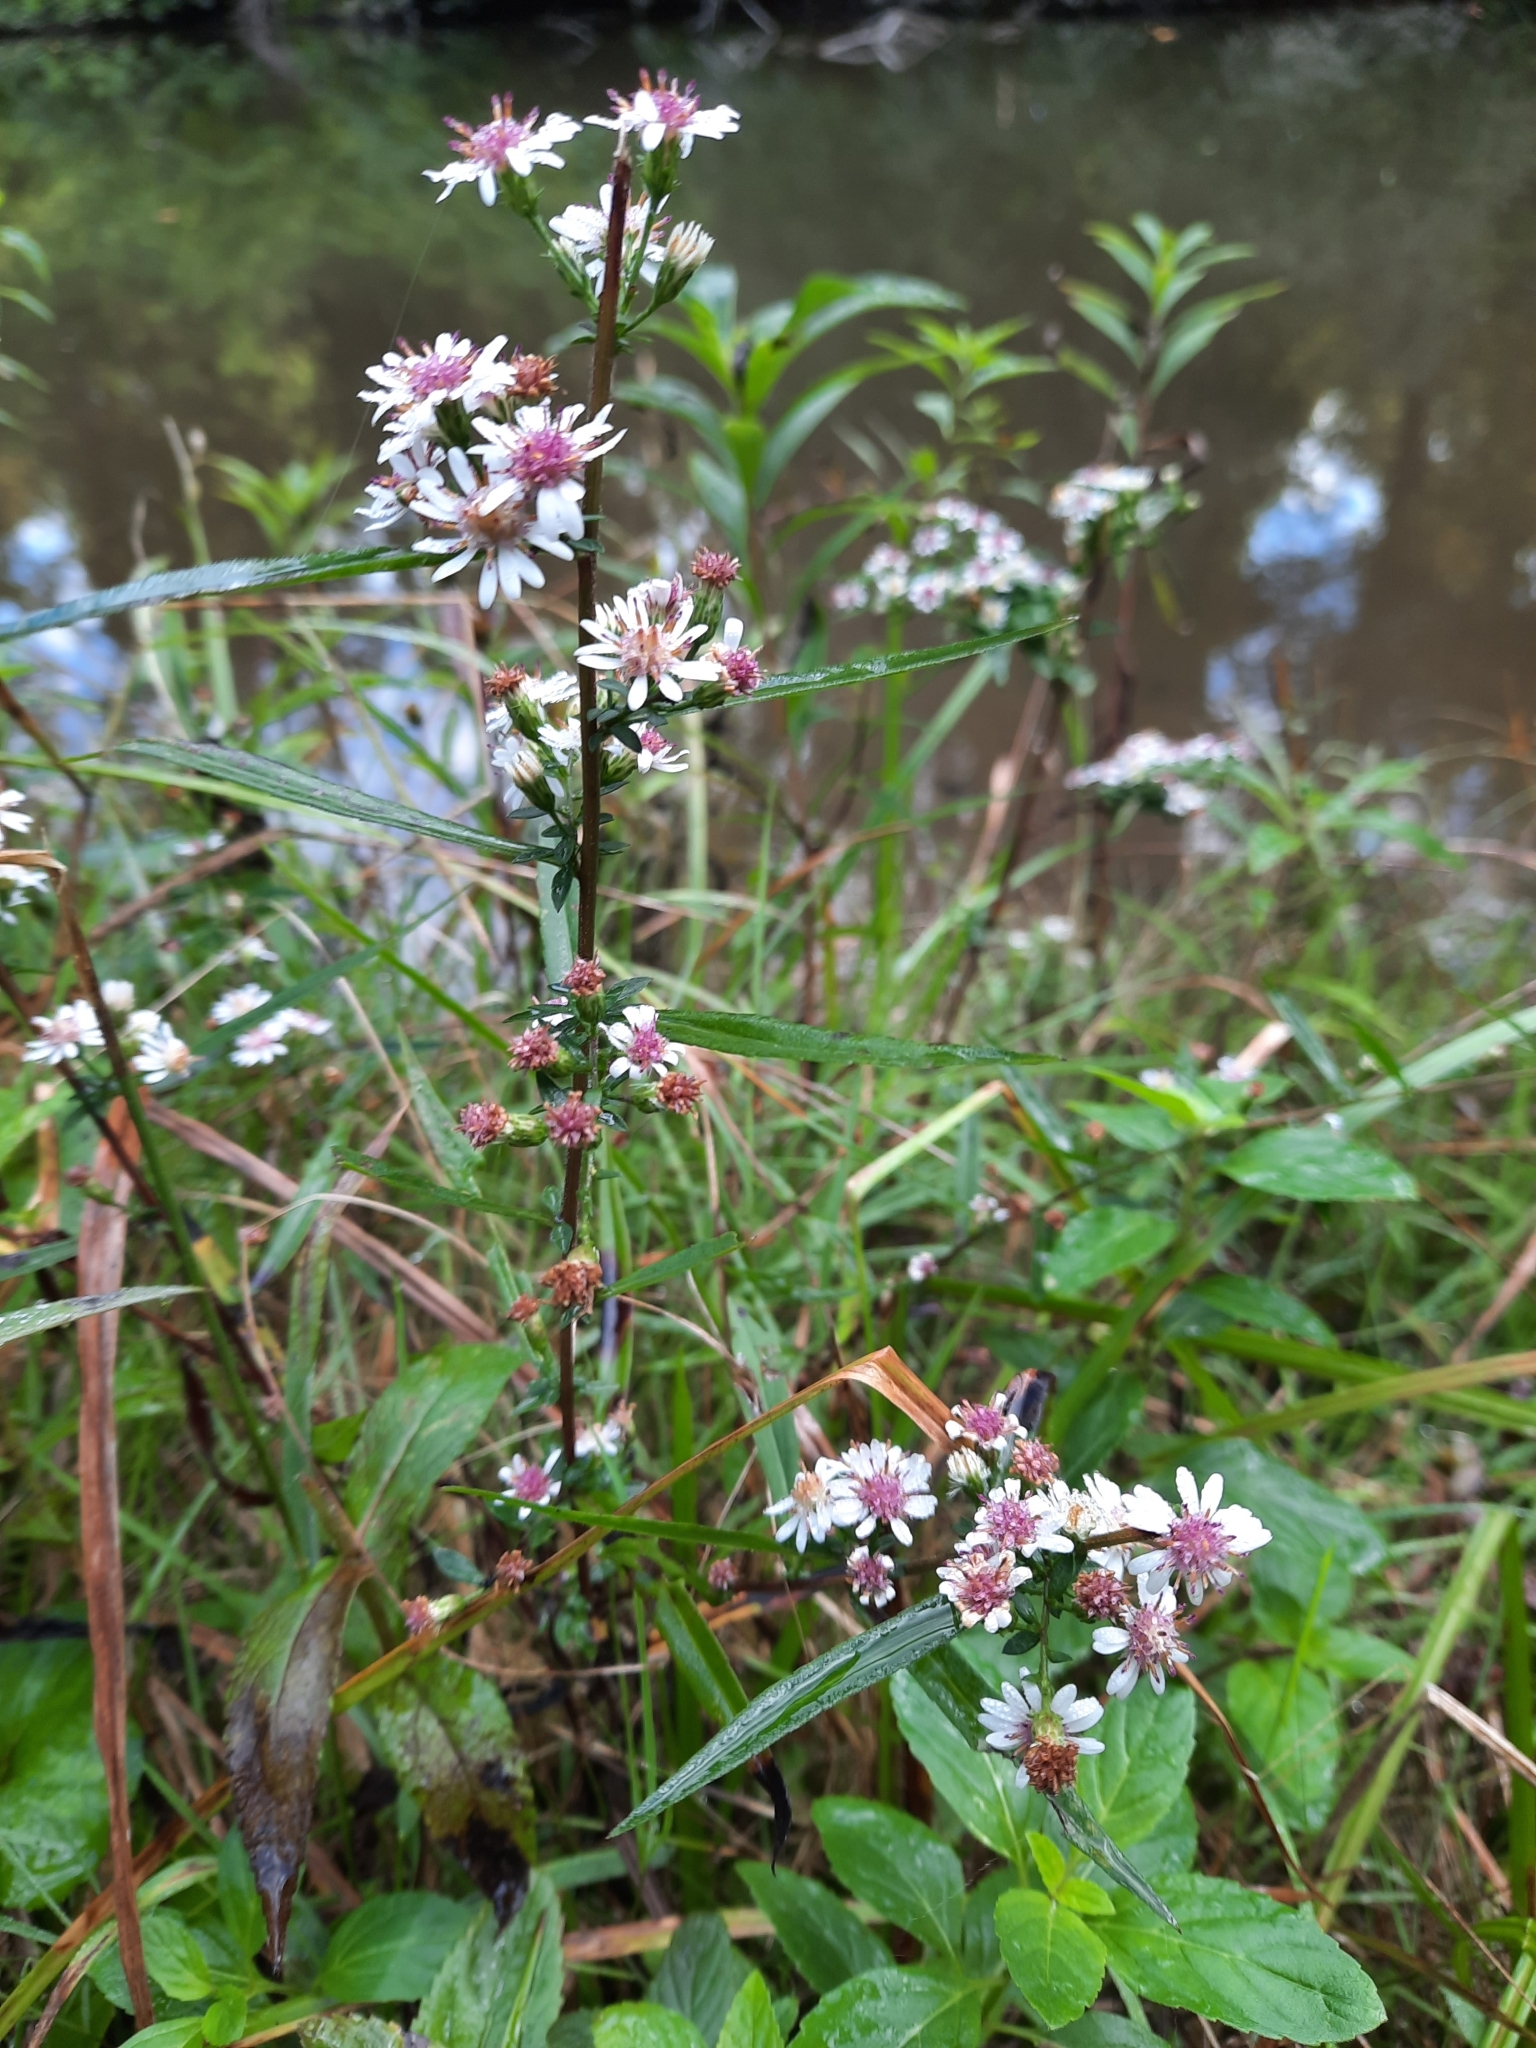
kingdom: Plantae
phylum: Tracheophyta
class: Magnoliopsida
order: Asterales
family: Asteraceae
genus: Symphyotrichum
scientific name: Symphyotrichum lateriflorum
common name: Calico aster
